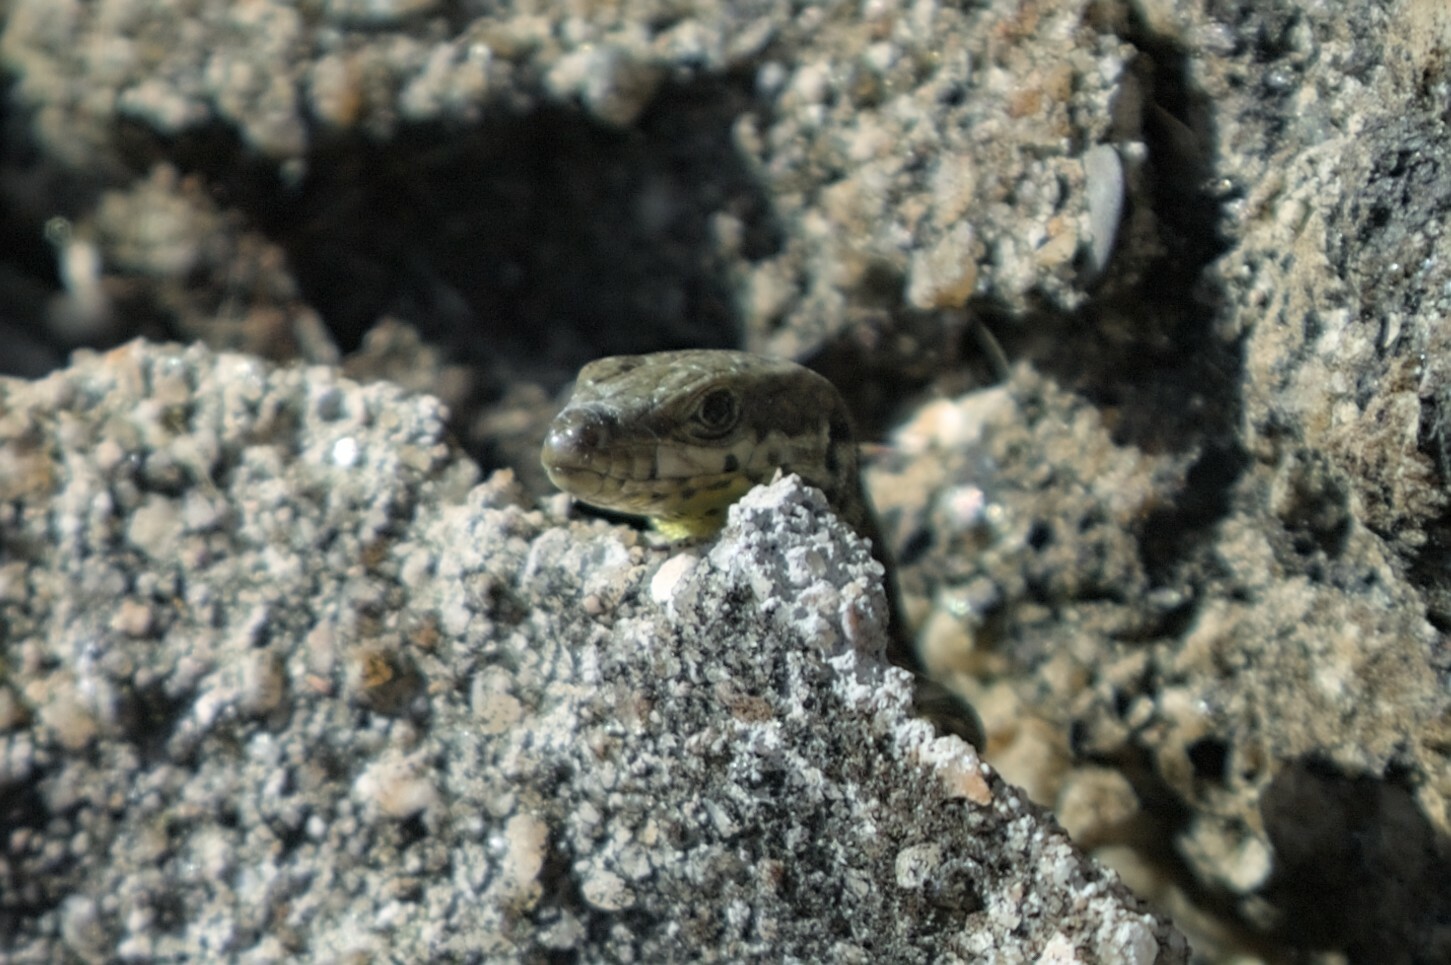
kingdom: Animalia
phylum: Chordata
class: Squamata
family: Lacertidae
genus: Podarcis
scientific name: Podarcis bocagei
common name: Bocage's wall lizard
